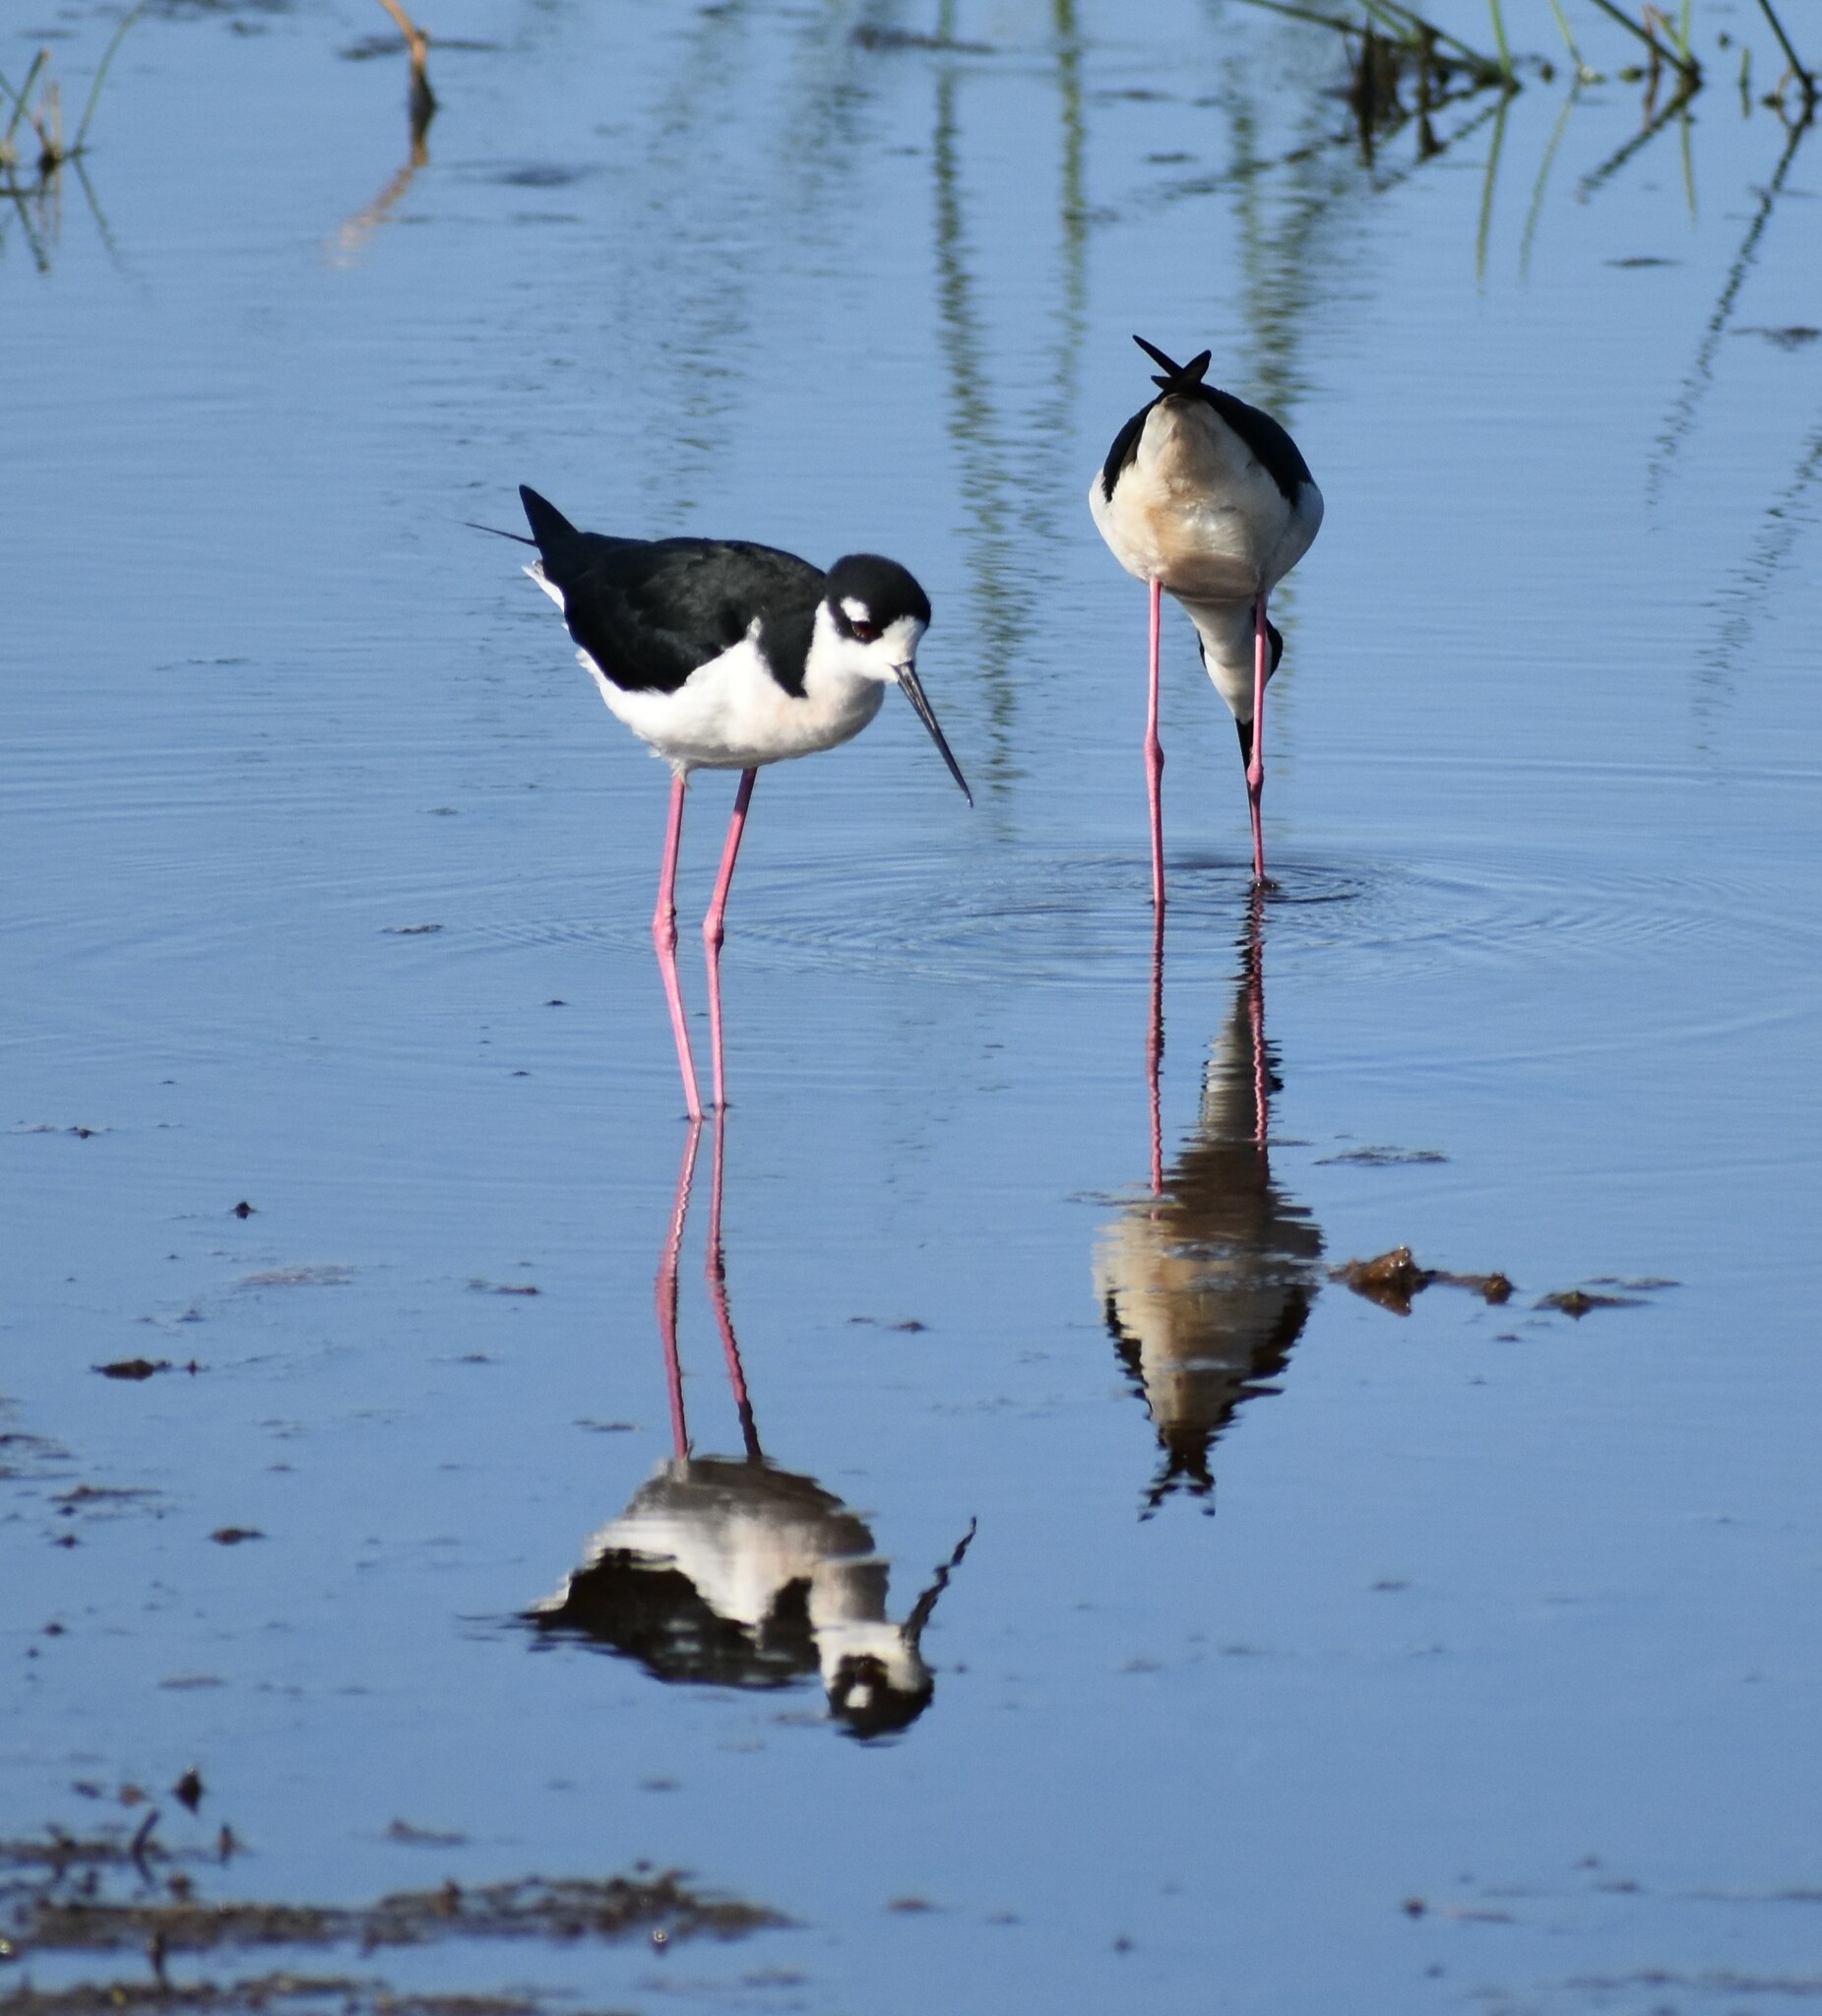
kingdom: Animalia
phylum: Chordata
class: Aves
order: Charadriiformes
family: Recurvirostridae
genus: Himantopus
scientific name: Himantopus mexicanus
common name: Black-necked stilt
